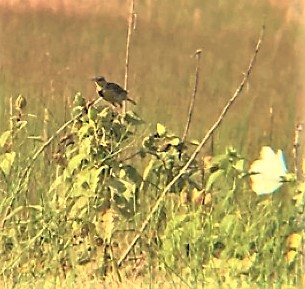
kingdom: Animalia
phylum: Chordata
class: Aves
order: Passeriformes
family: Icteridae
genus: Sturnella
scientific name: Sturnella magna
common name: Eastern meadowlark
